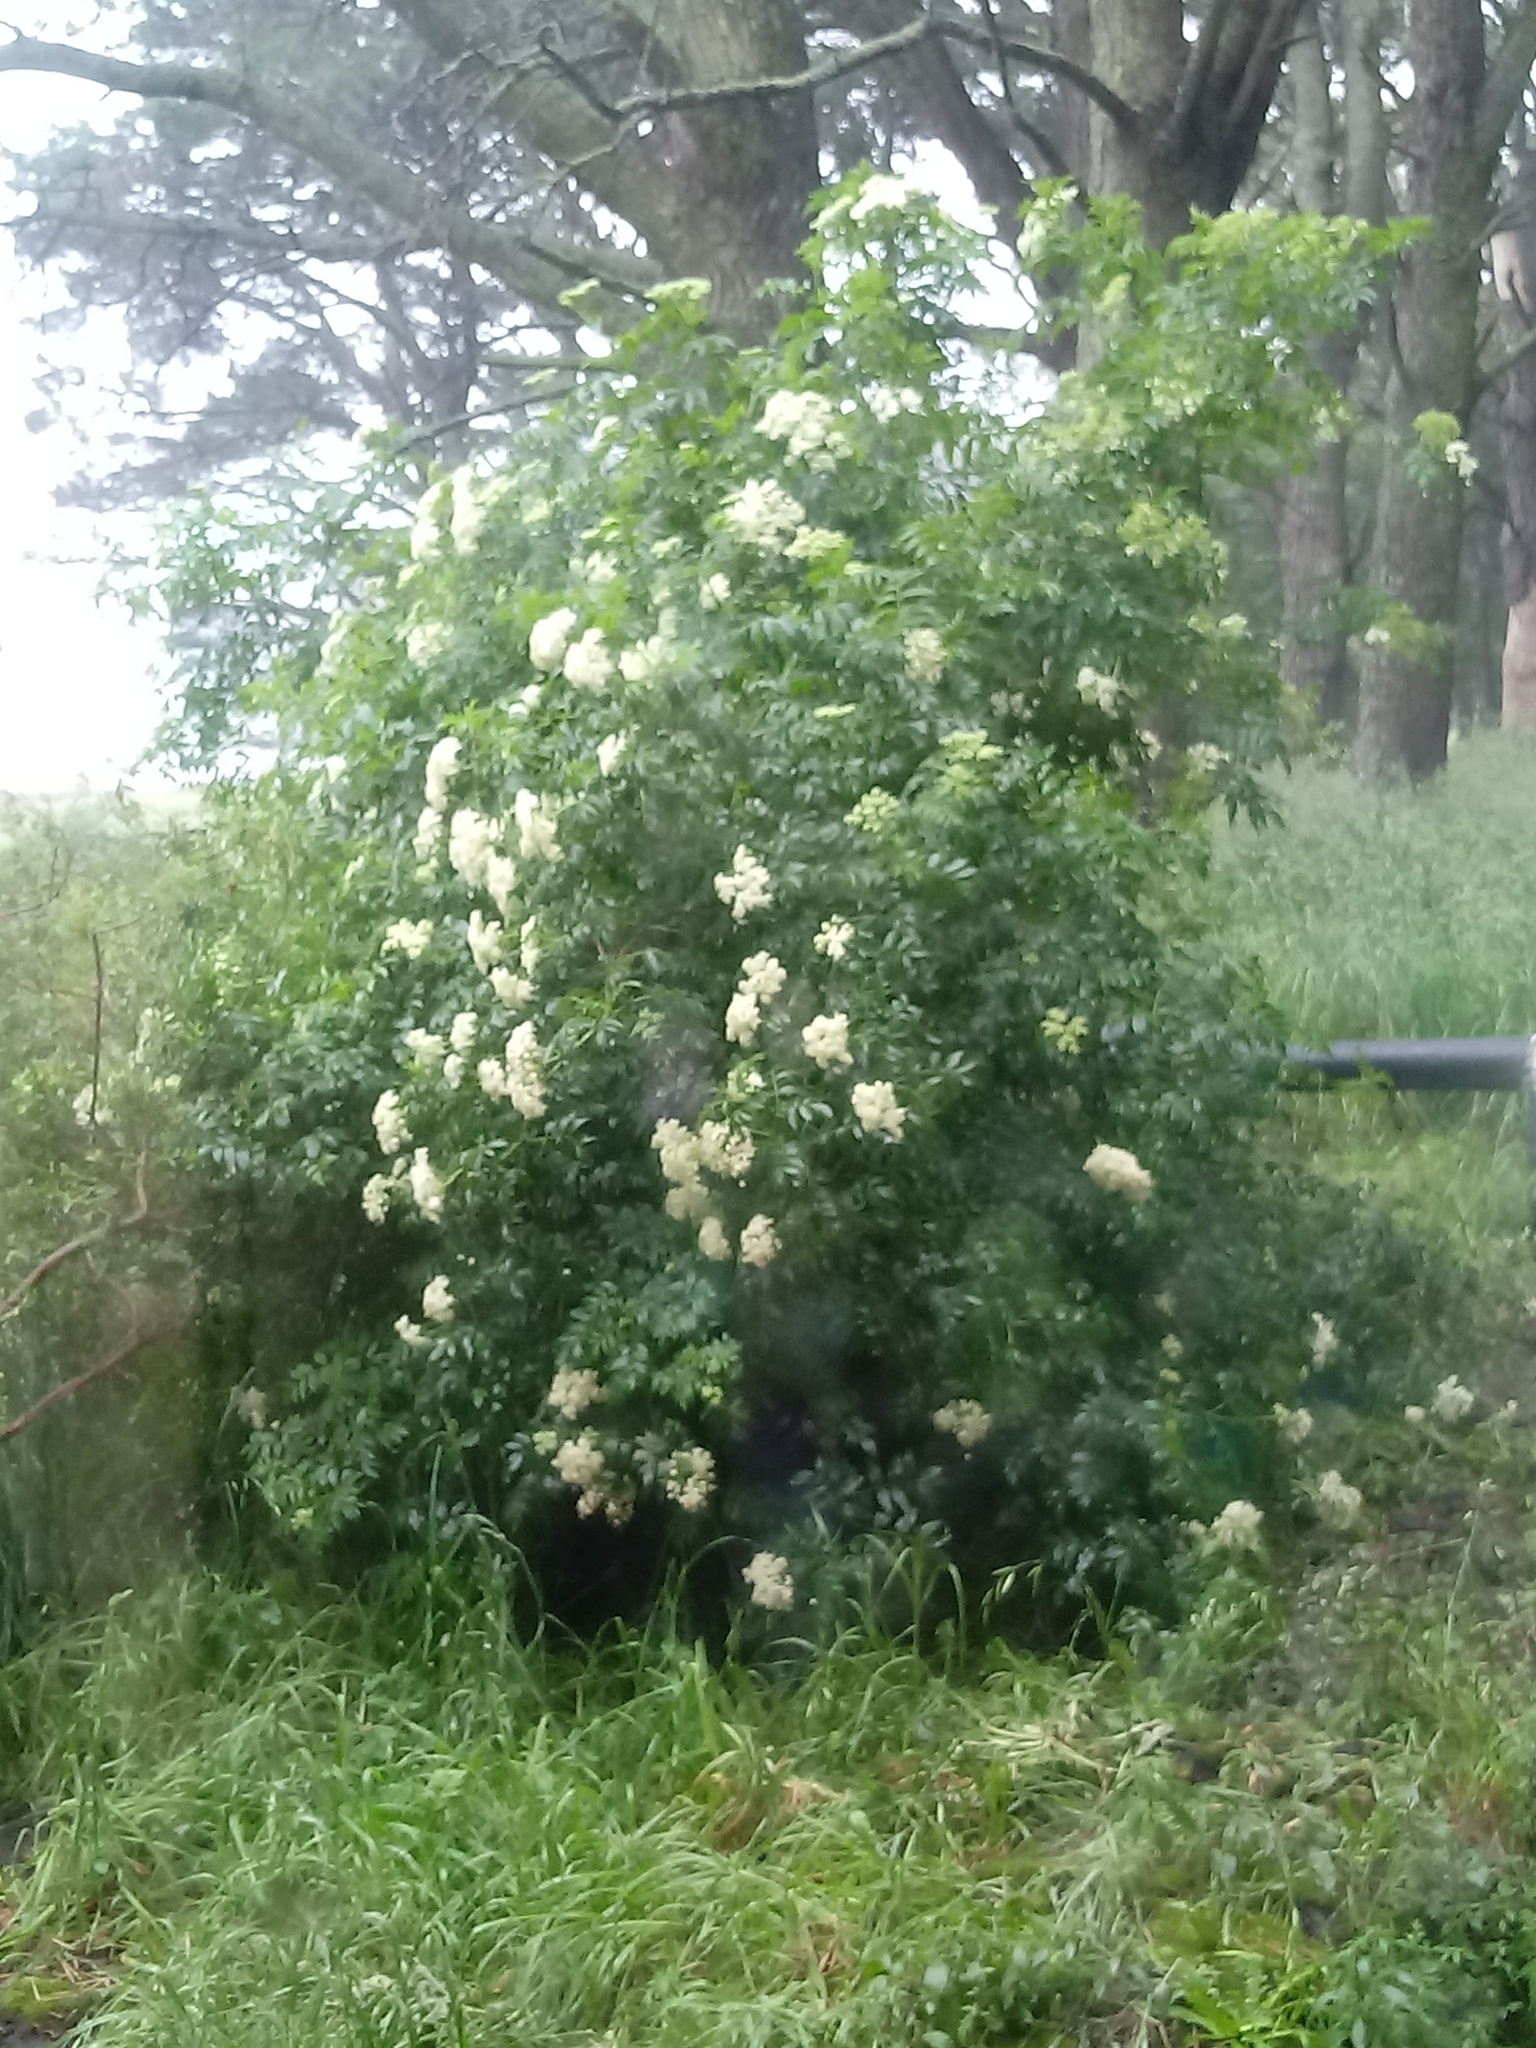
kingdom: Plantae
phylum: Tracheophyta
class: Magnoliopsida
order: Dipsacales
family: Viburnaceae
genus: Sambucus
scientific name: Sambucus australis
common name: Southern elder
